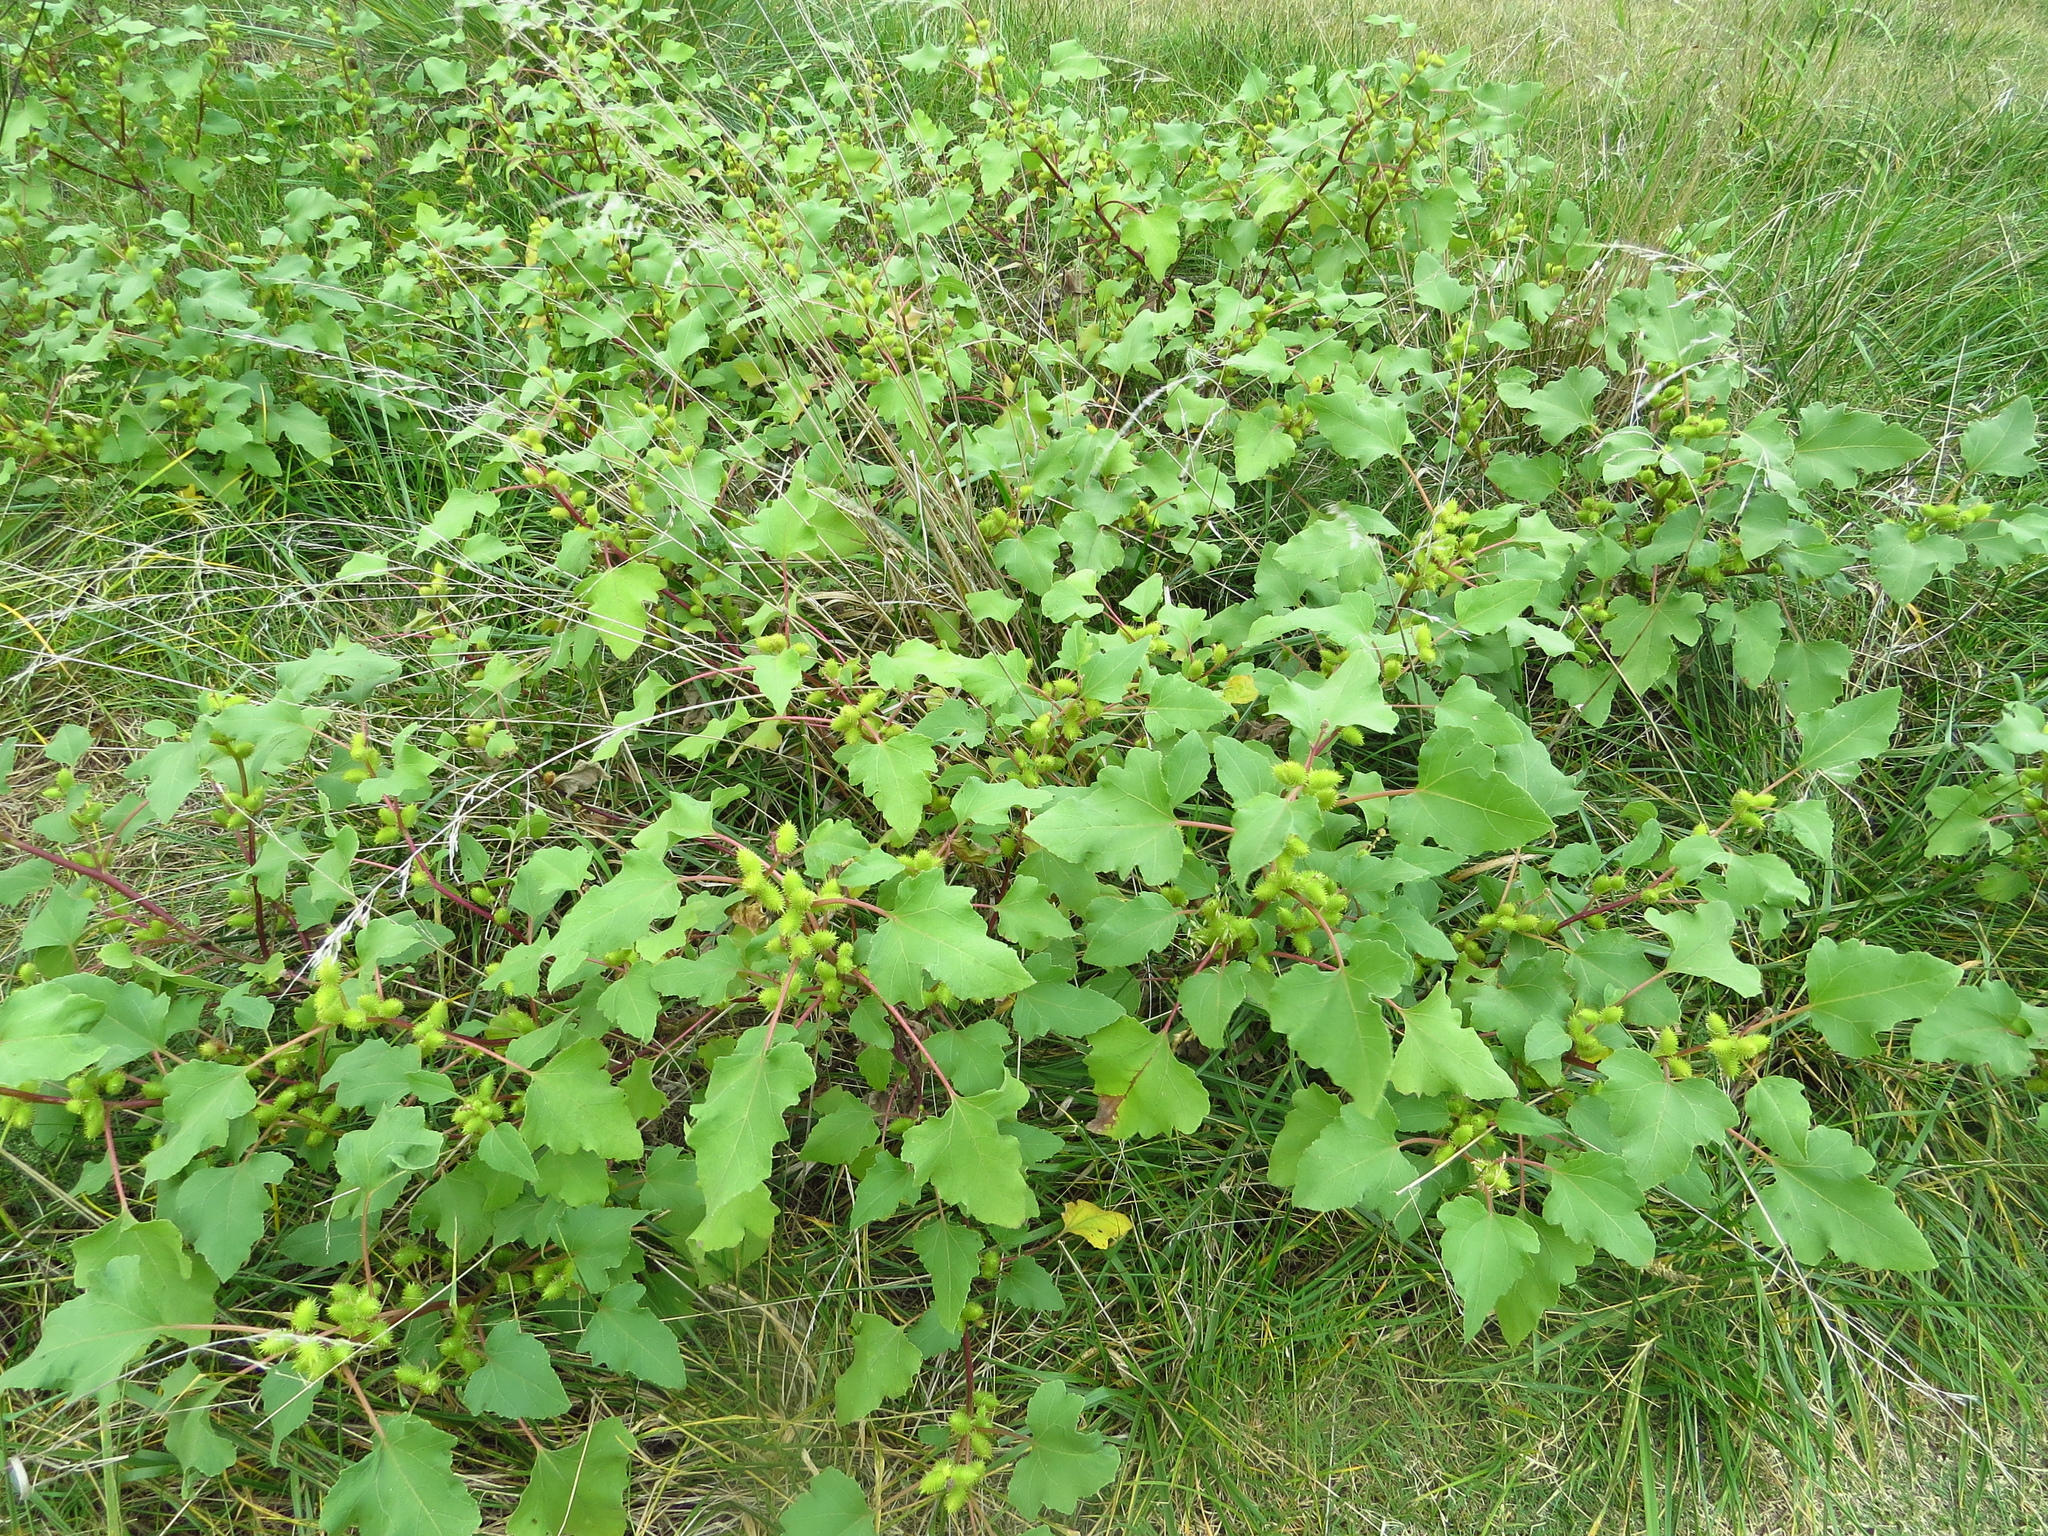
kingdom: Plantae
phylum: Tracheophyta
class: Magnoliopsida
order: Asterales
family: Asteraceae
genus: Xanthium
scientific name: Xanthium strumarium
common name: Rough cocklebur
